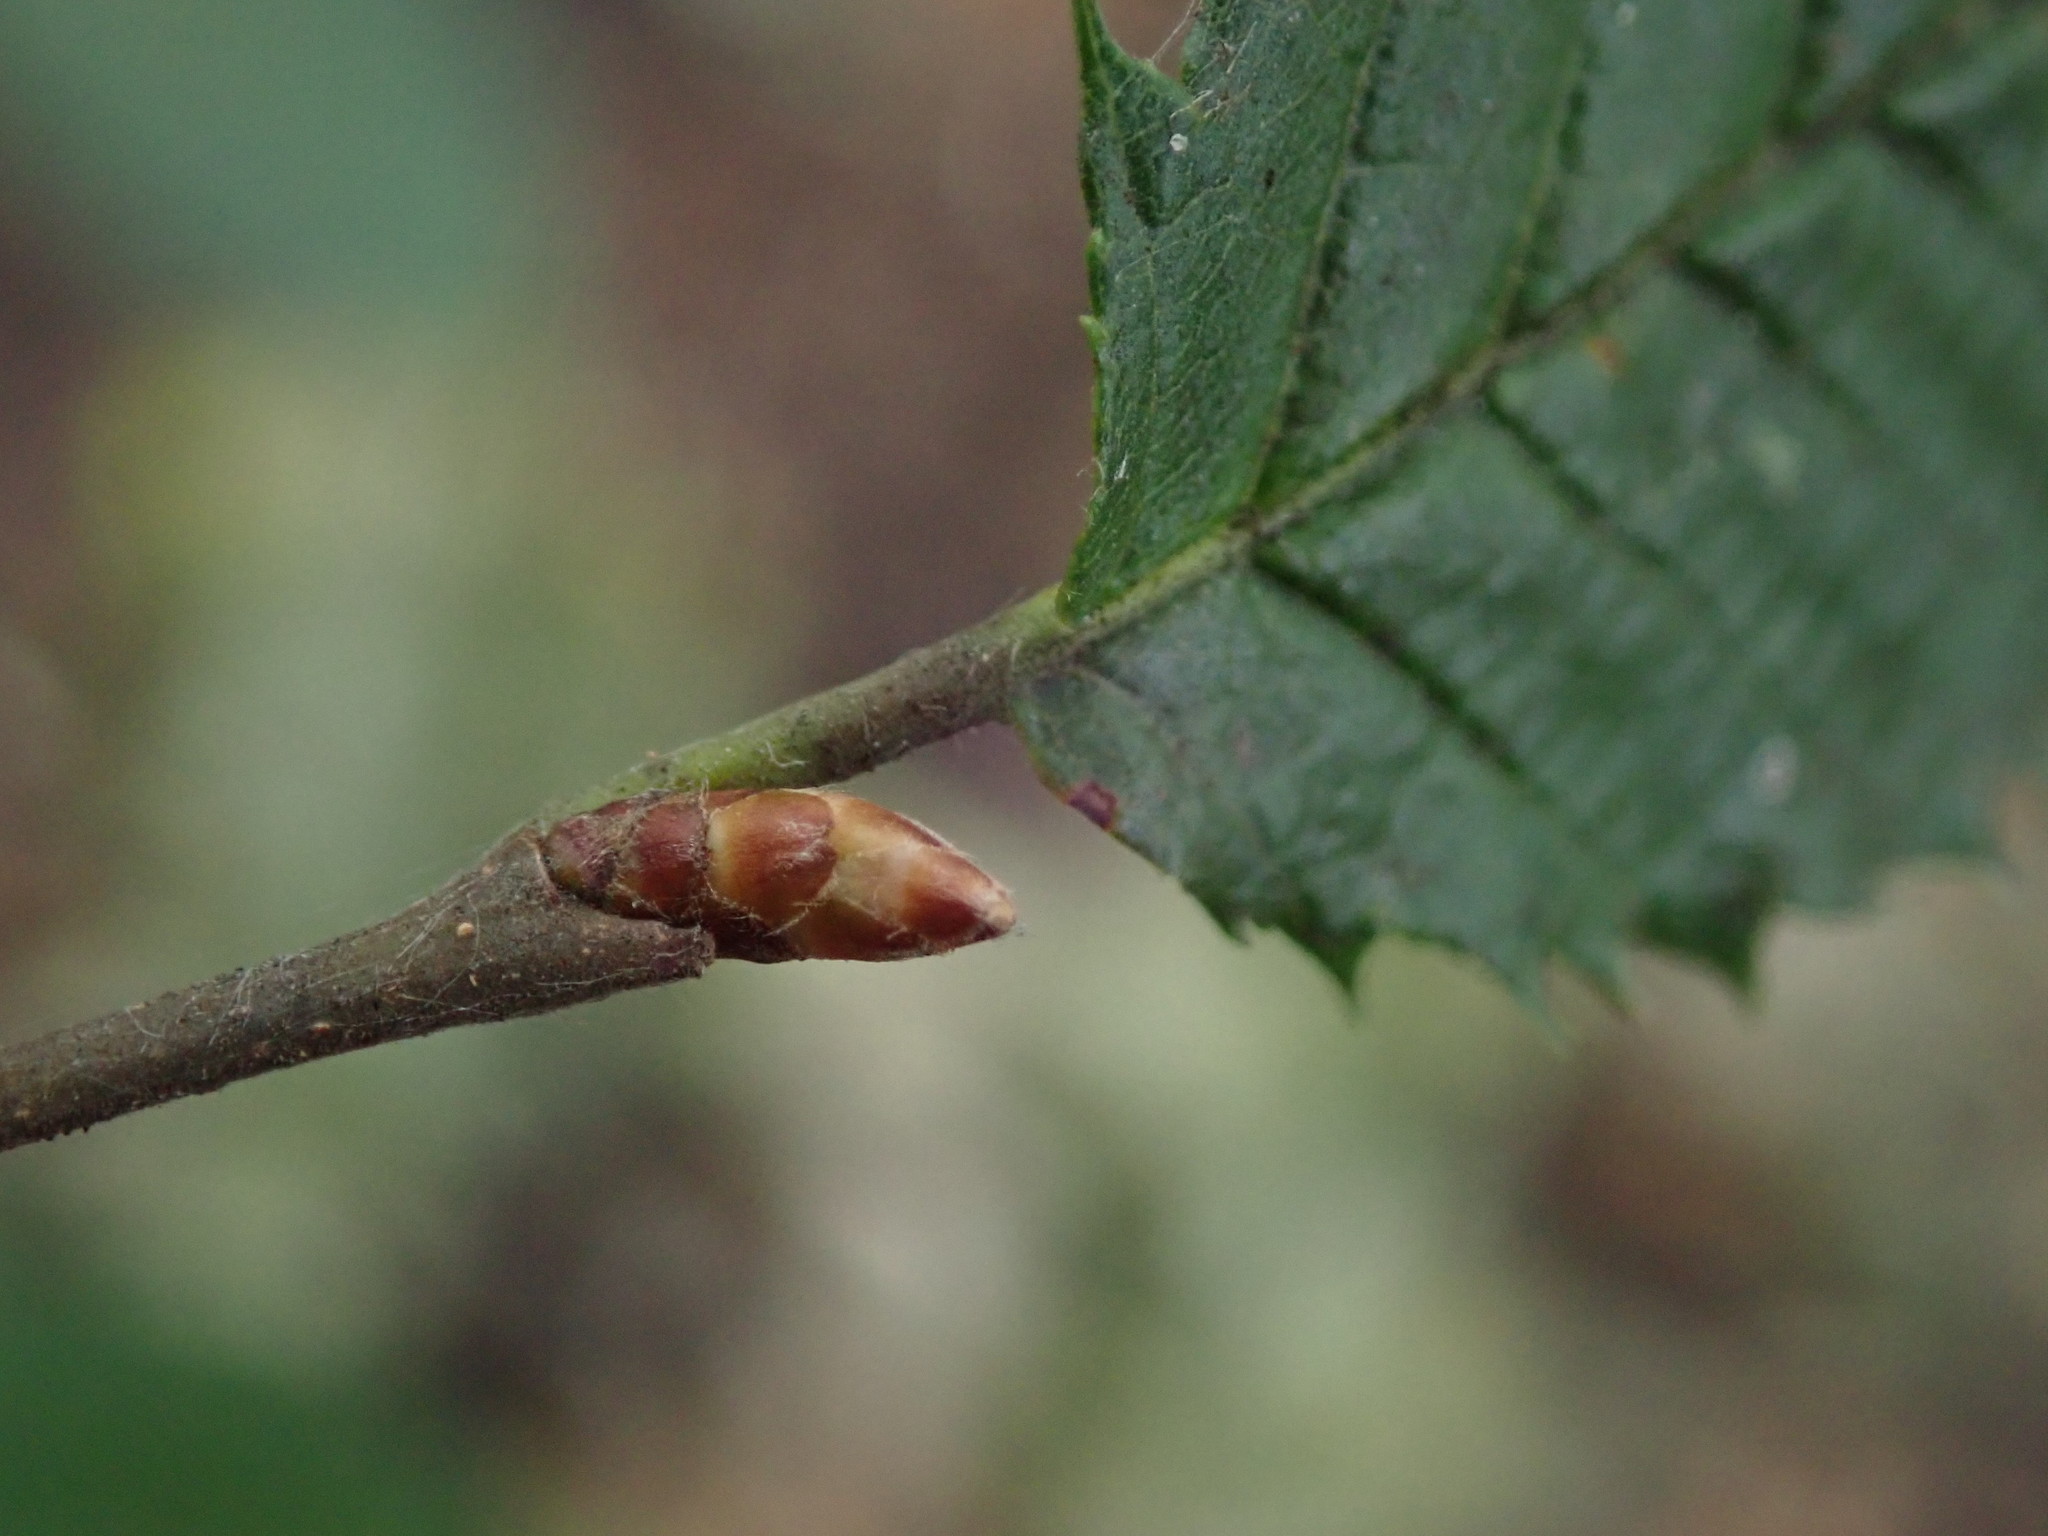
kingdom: Plantae
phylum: Tracheophyta
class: Magnoliopsida
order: Fagales
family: Betulaceae
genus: Carpinus
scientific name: Carpinus betulus
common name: Hornbeam
